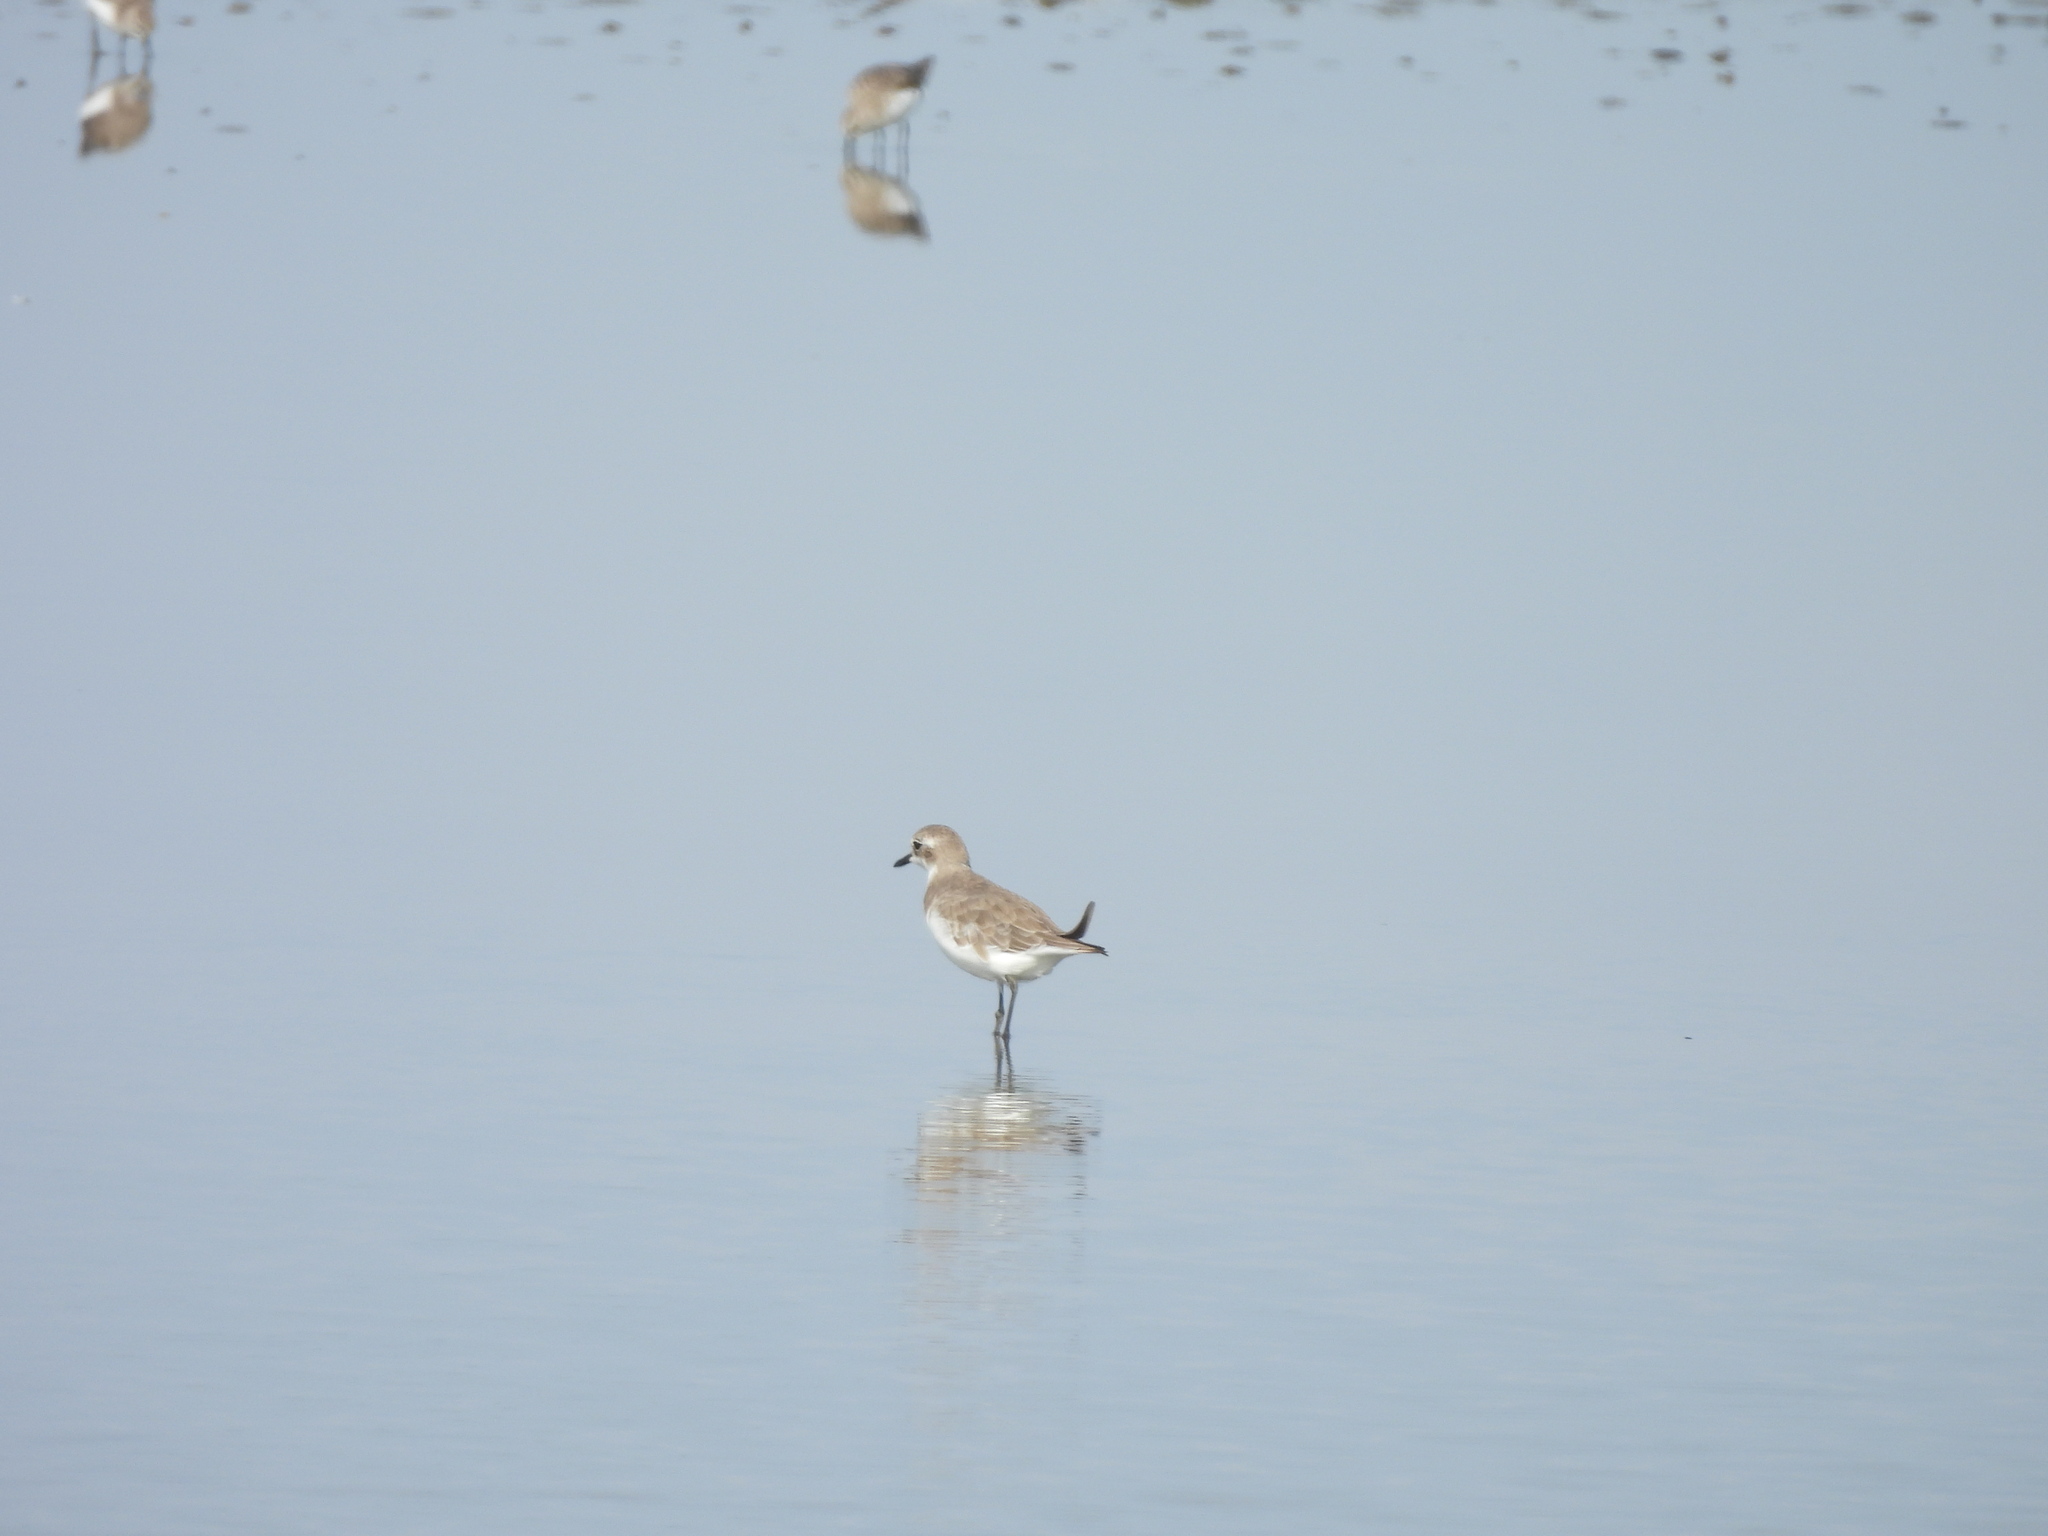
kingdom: Animalia
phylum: Chordata
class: Aves
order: Charadriiformes
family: Charadriidae
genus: Charadrius
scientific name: Charadrius leschenaultii
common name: Greater sand plover
